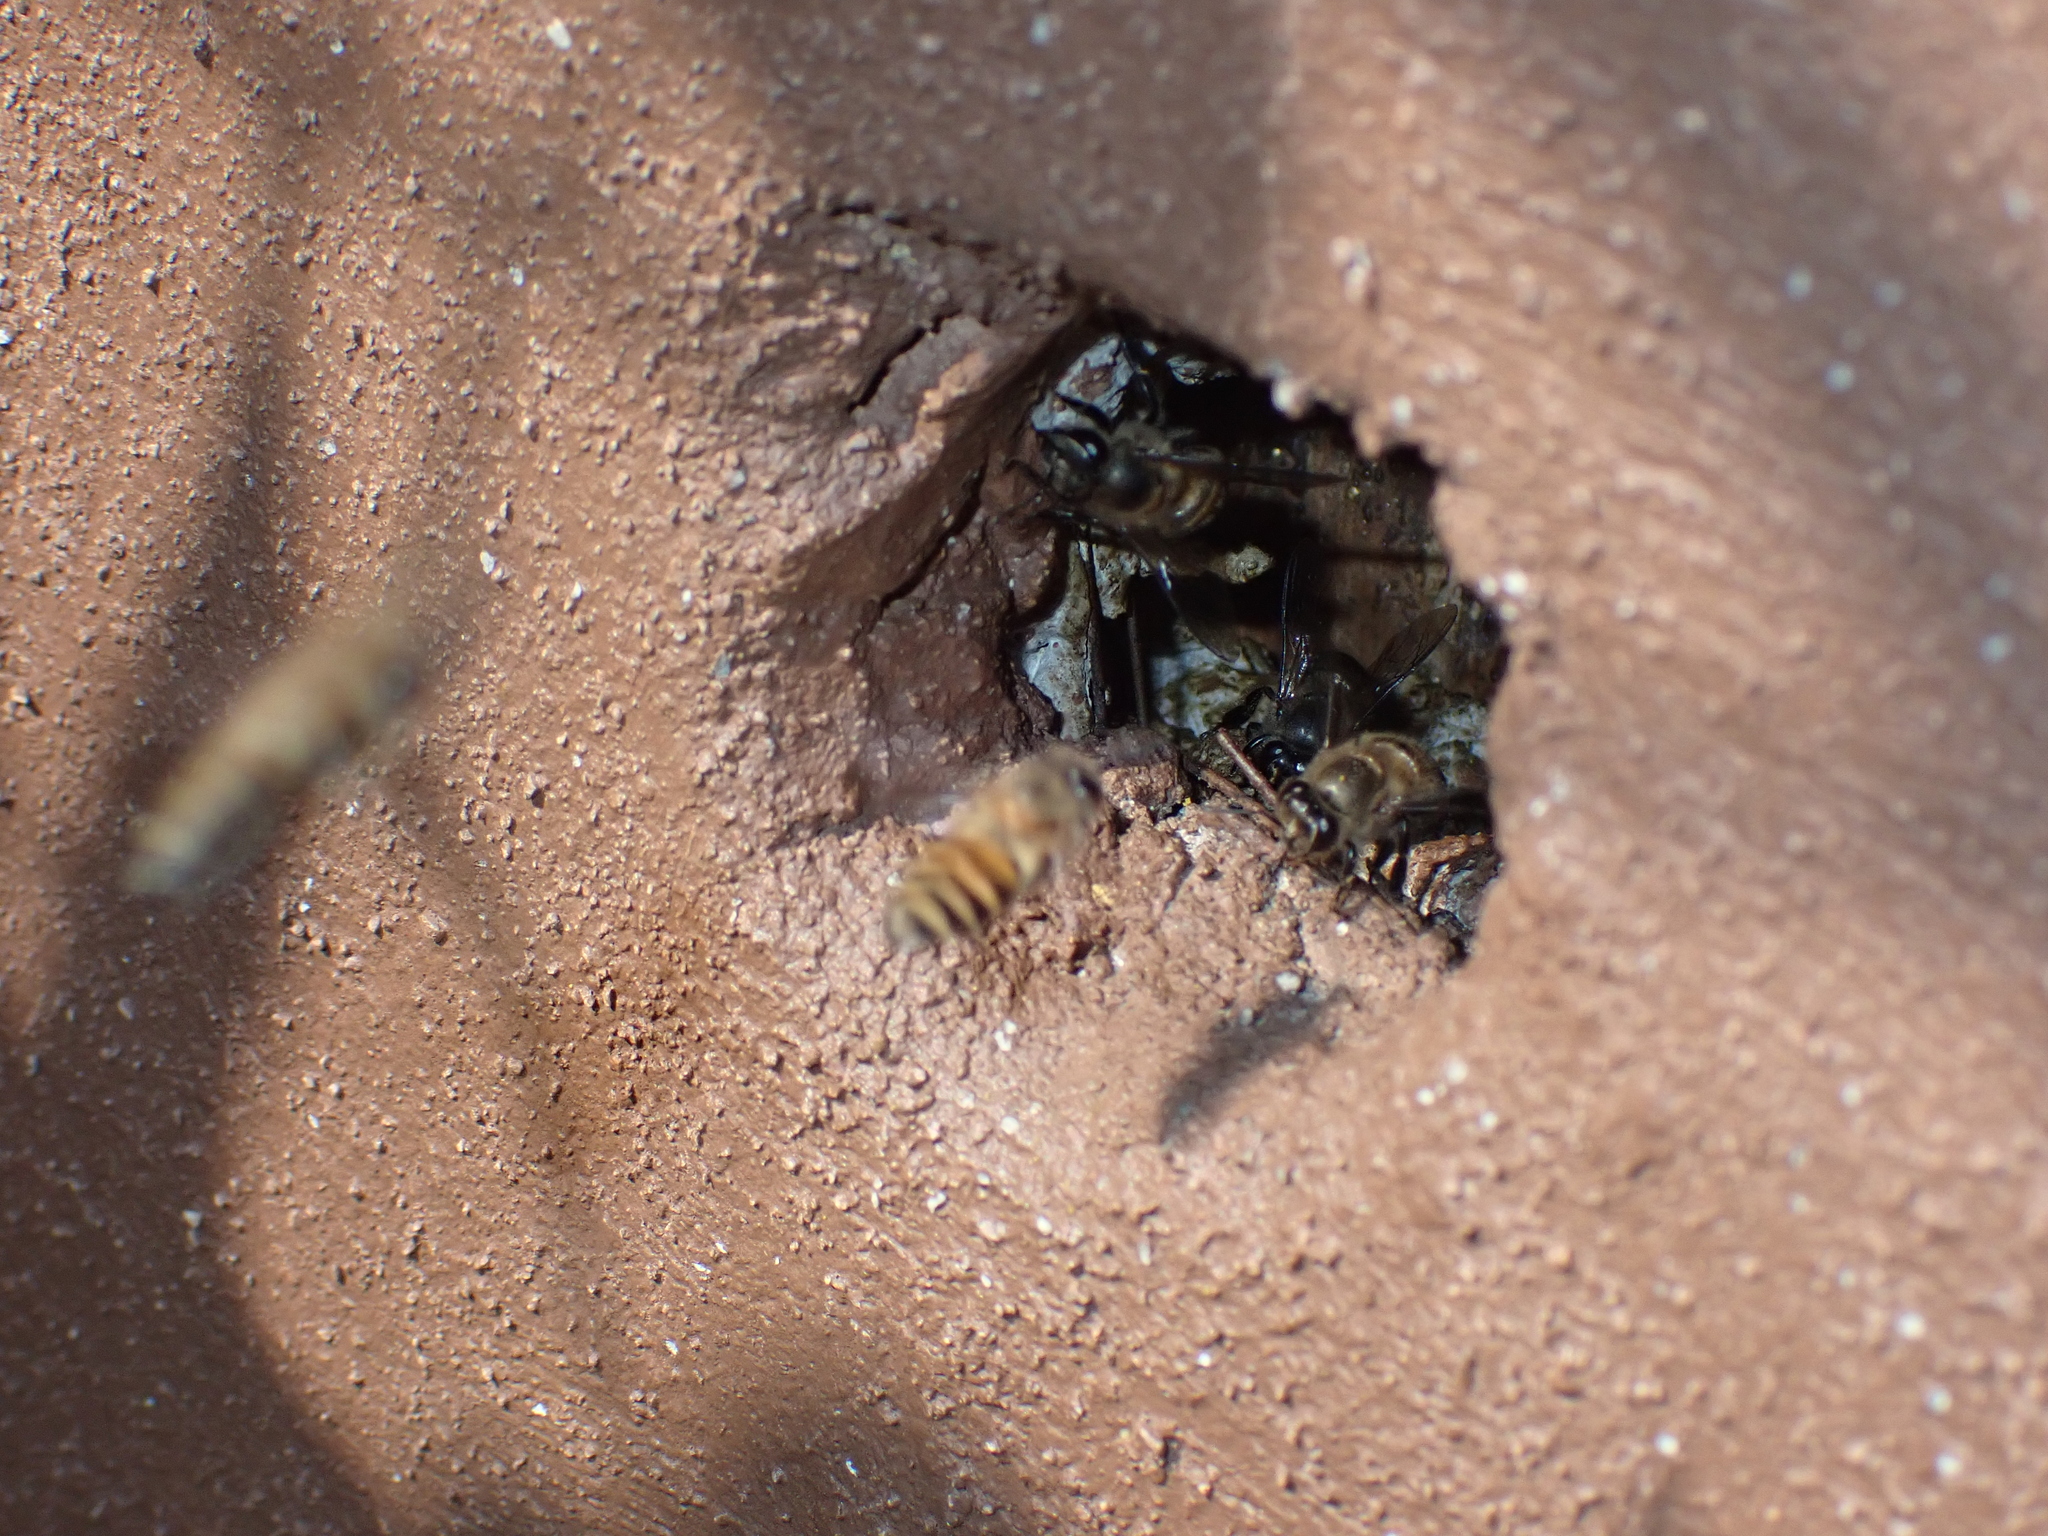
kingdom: Animalia
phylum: Arthropoda
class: Insecta
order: Hymenoptera
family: Apidae
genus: Apis
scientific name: Apis cerana
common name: Honey bee
